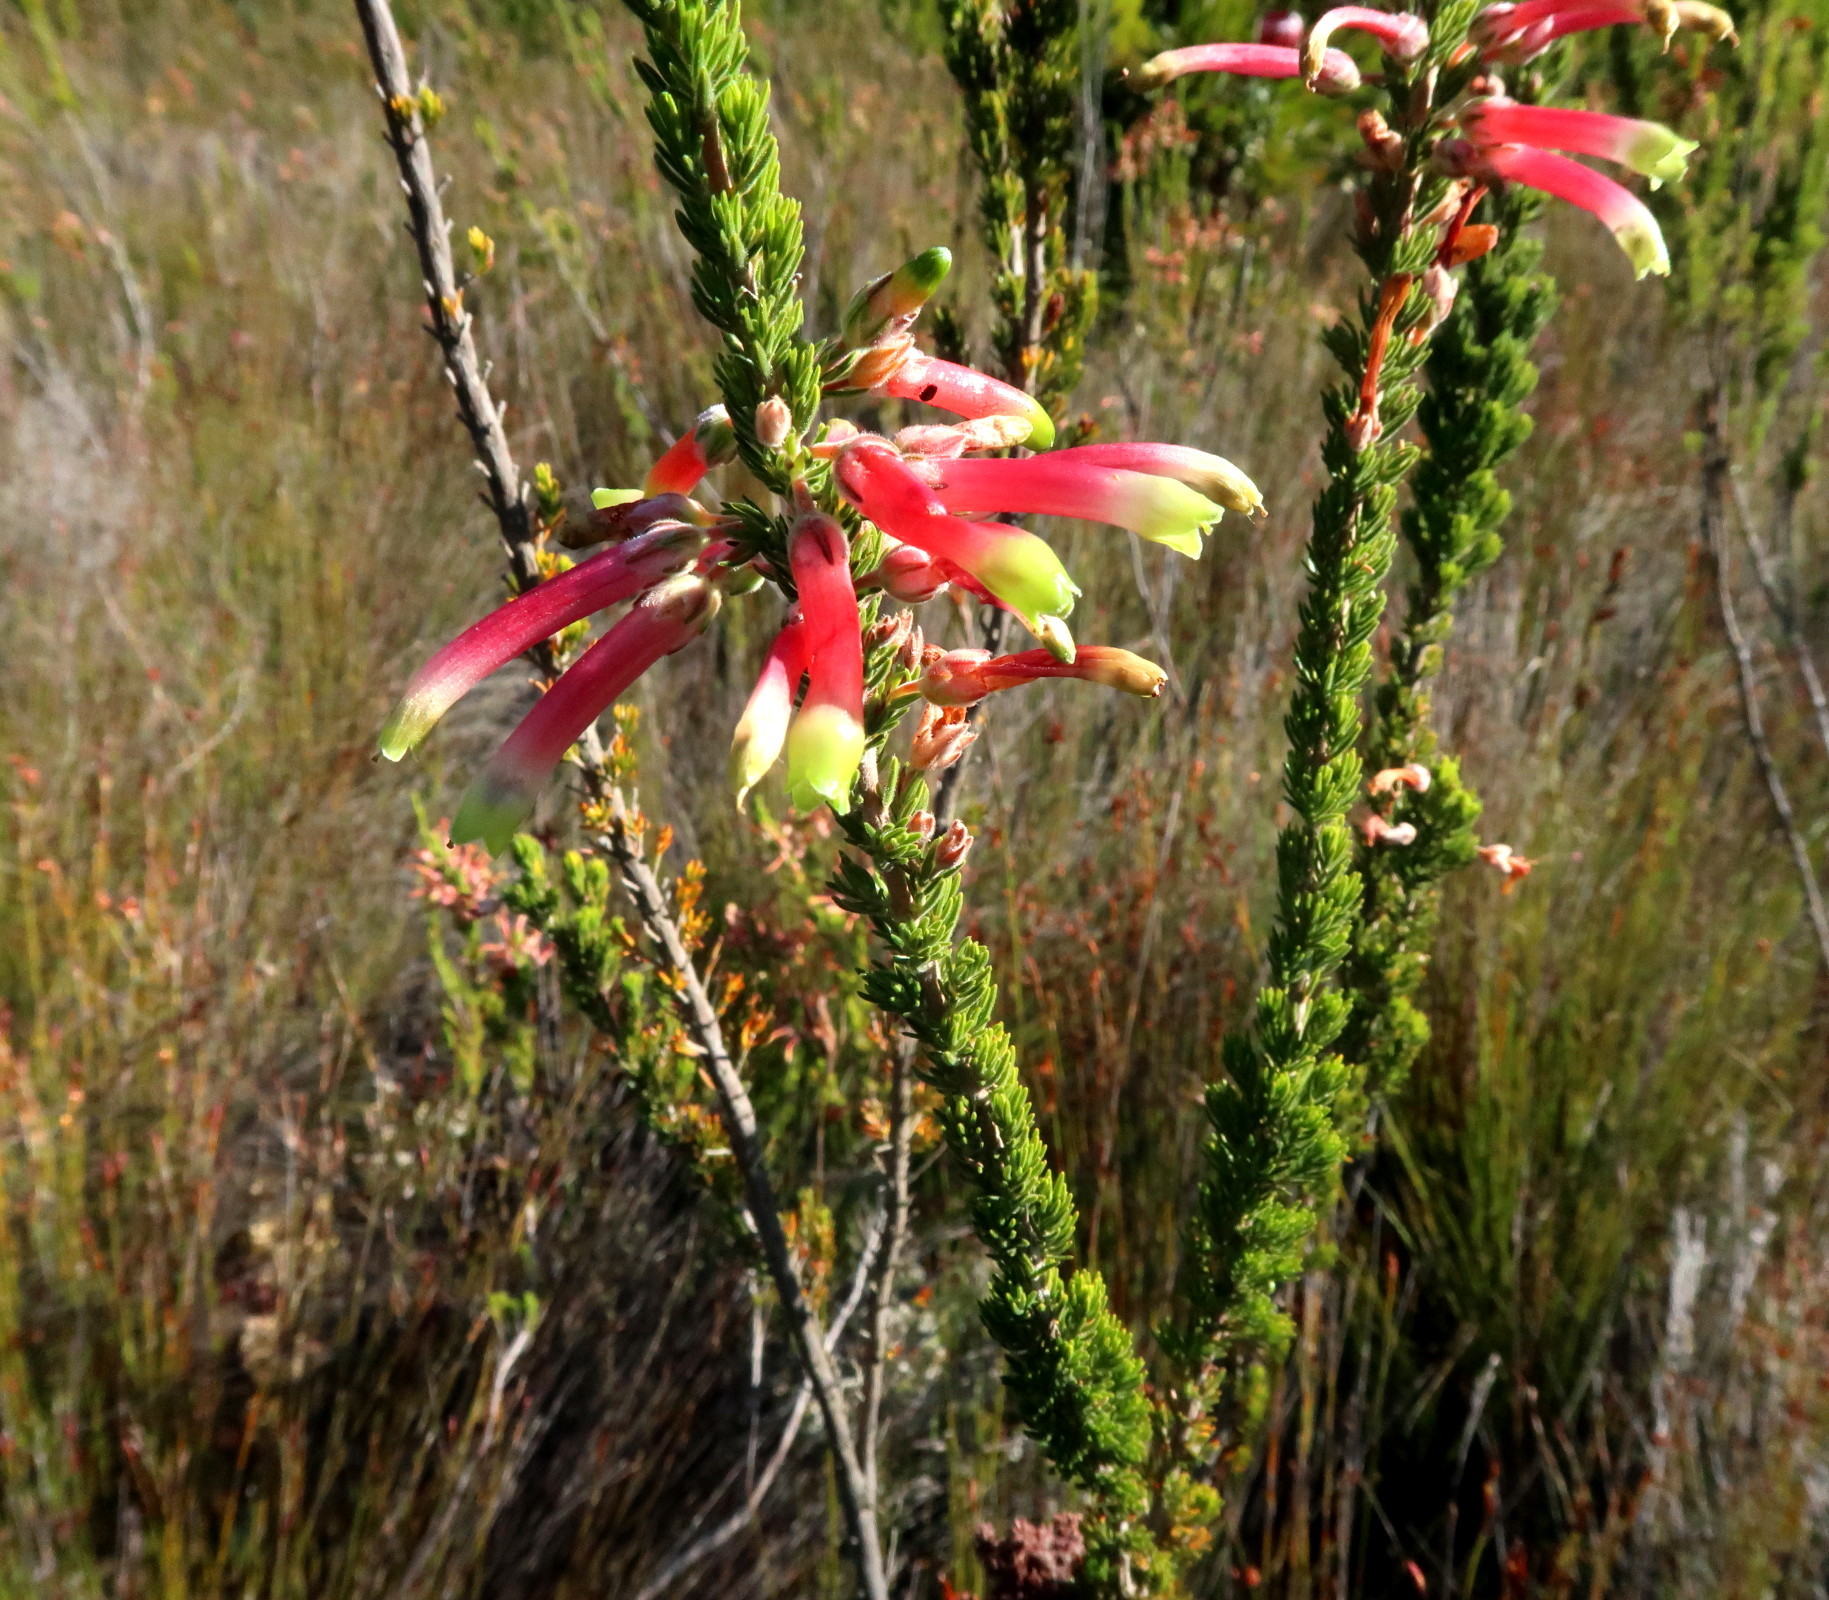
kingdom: Plantae
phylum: Tracheophyta
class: Magnoliopsida
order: Ericales
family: Ericaceae
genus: Erica
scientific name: Erica discolor
